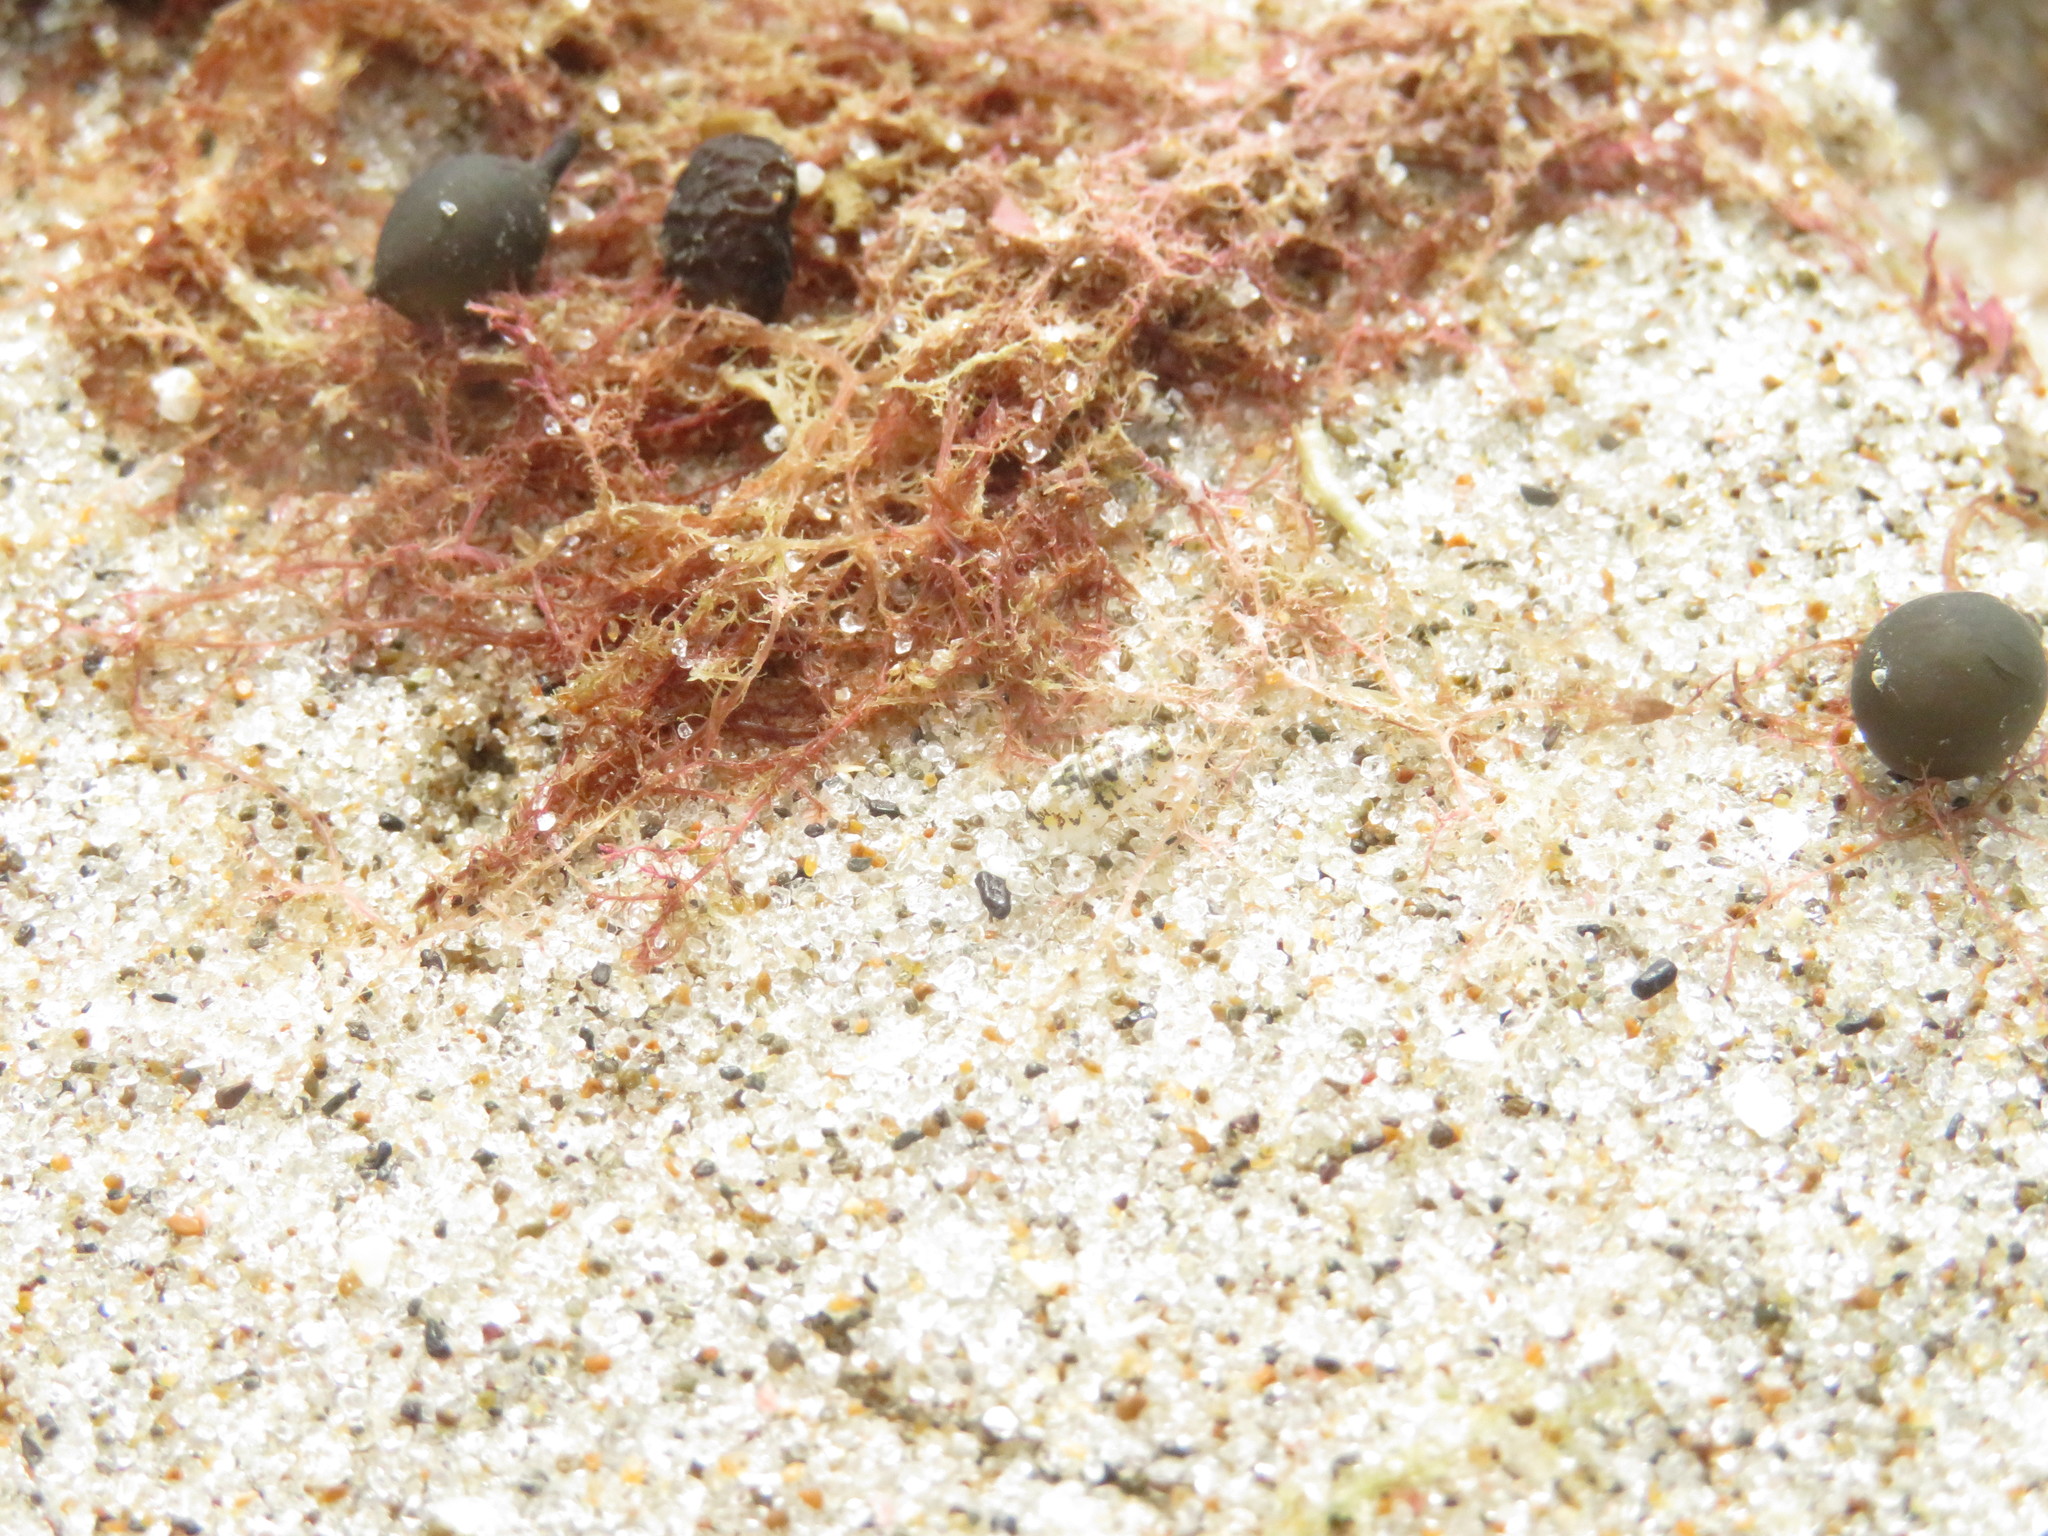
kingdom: Animalia
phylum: Arthropoda
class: Malacostraca
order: Isopoda
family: Scyphacidae
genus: Scyphax
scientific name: Scyphax ornatus
